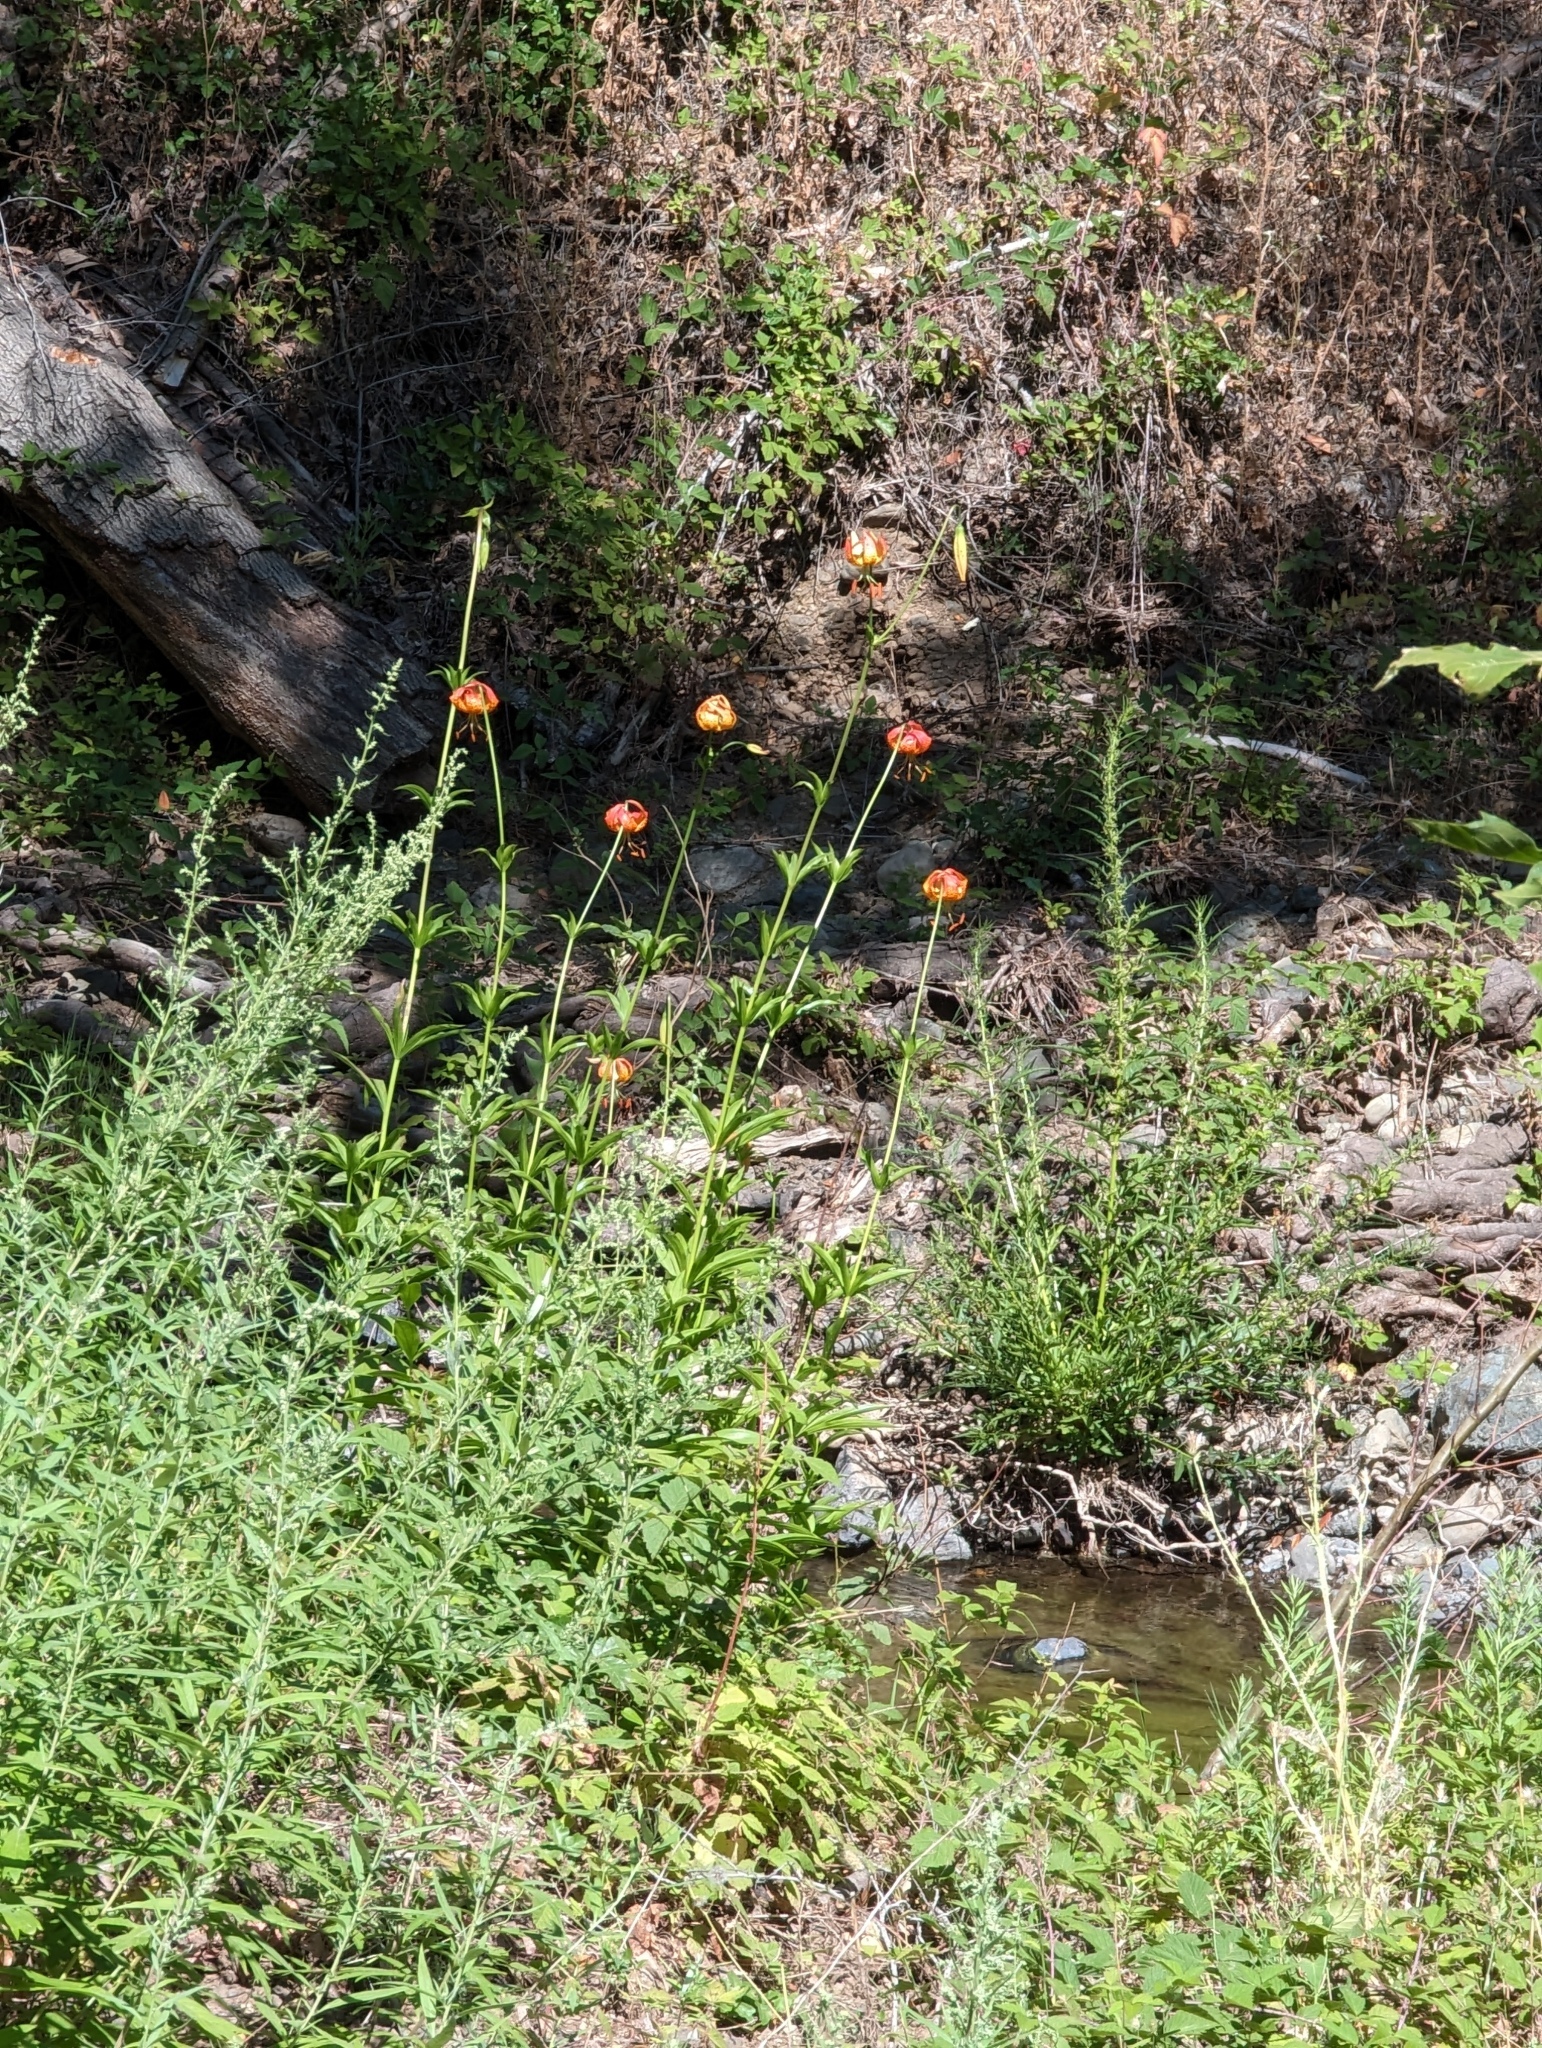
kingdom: Plantae
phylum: Tracheophyta
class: Liliopsida
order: Liliales
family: Liliaceae
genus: Lilium
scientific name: Lilium pardalinum
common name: Panther lily
